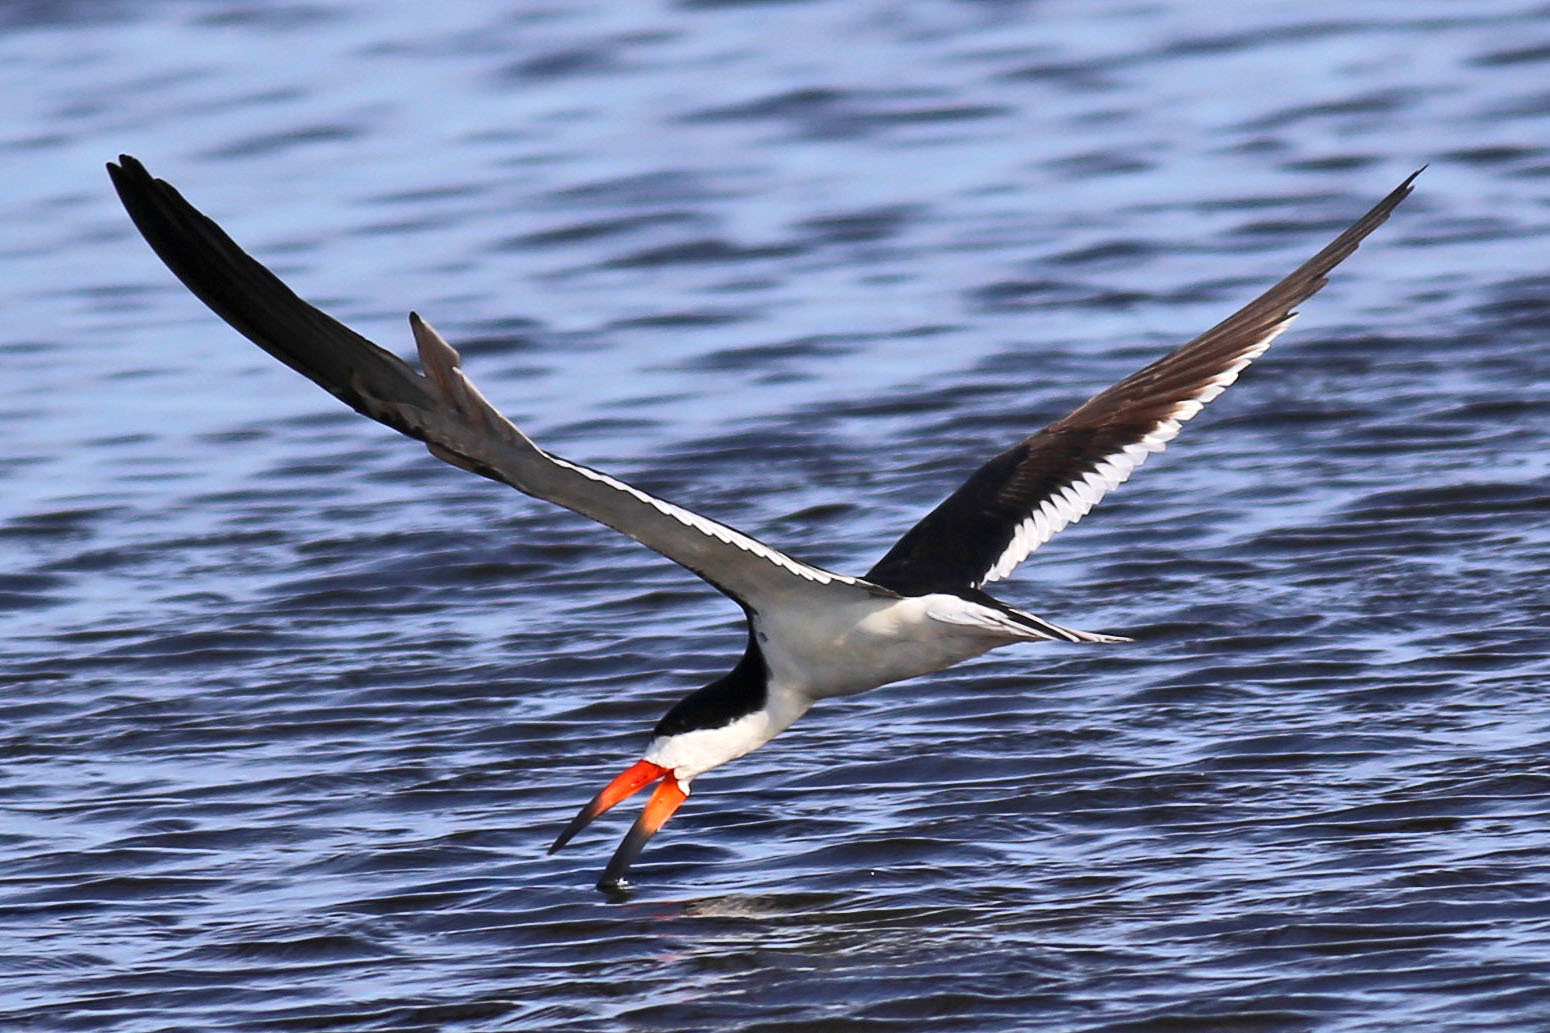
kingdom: Animalia
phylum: Chordata
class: Aves
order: Charadriiformes
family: Laridae
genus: Rynchops
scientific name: Rynchops niger
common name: Black skimmer
